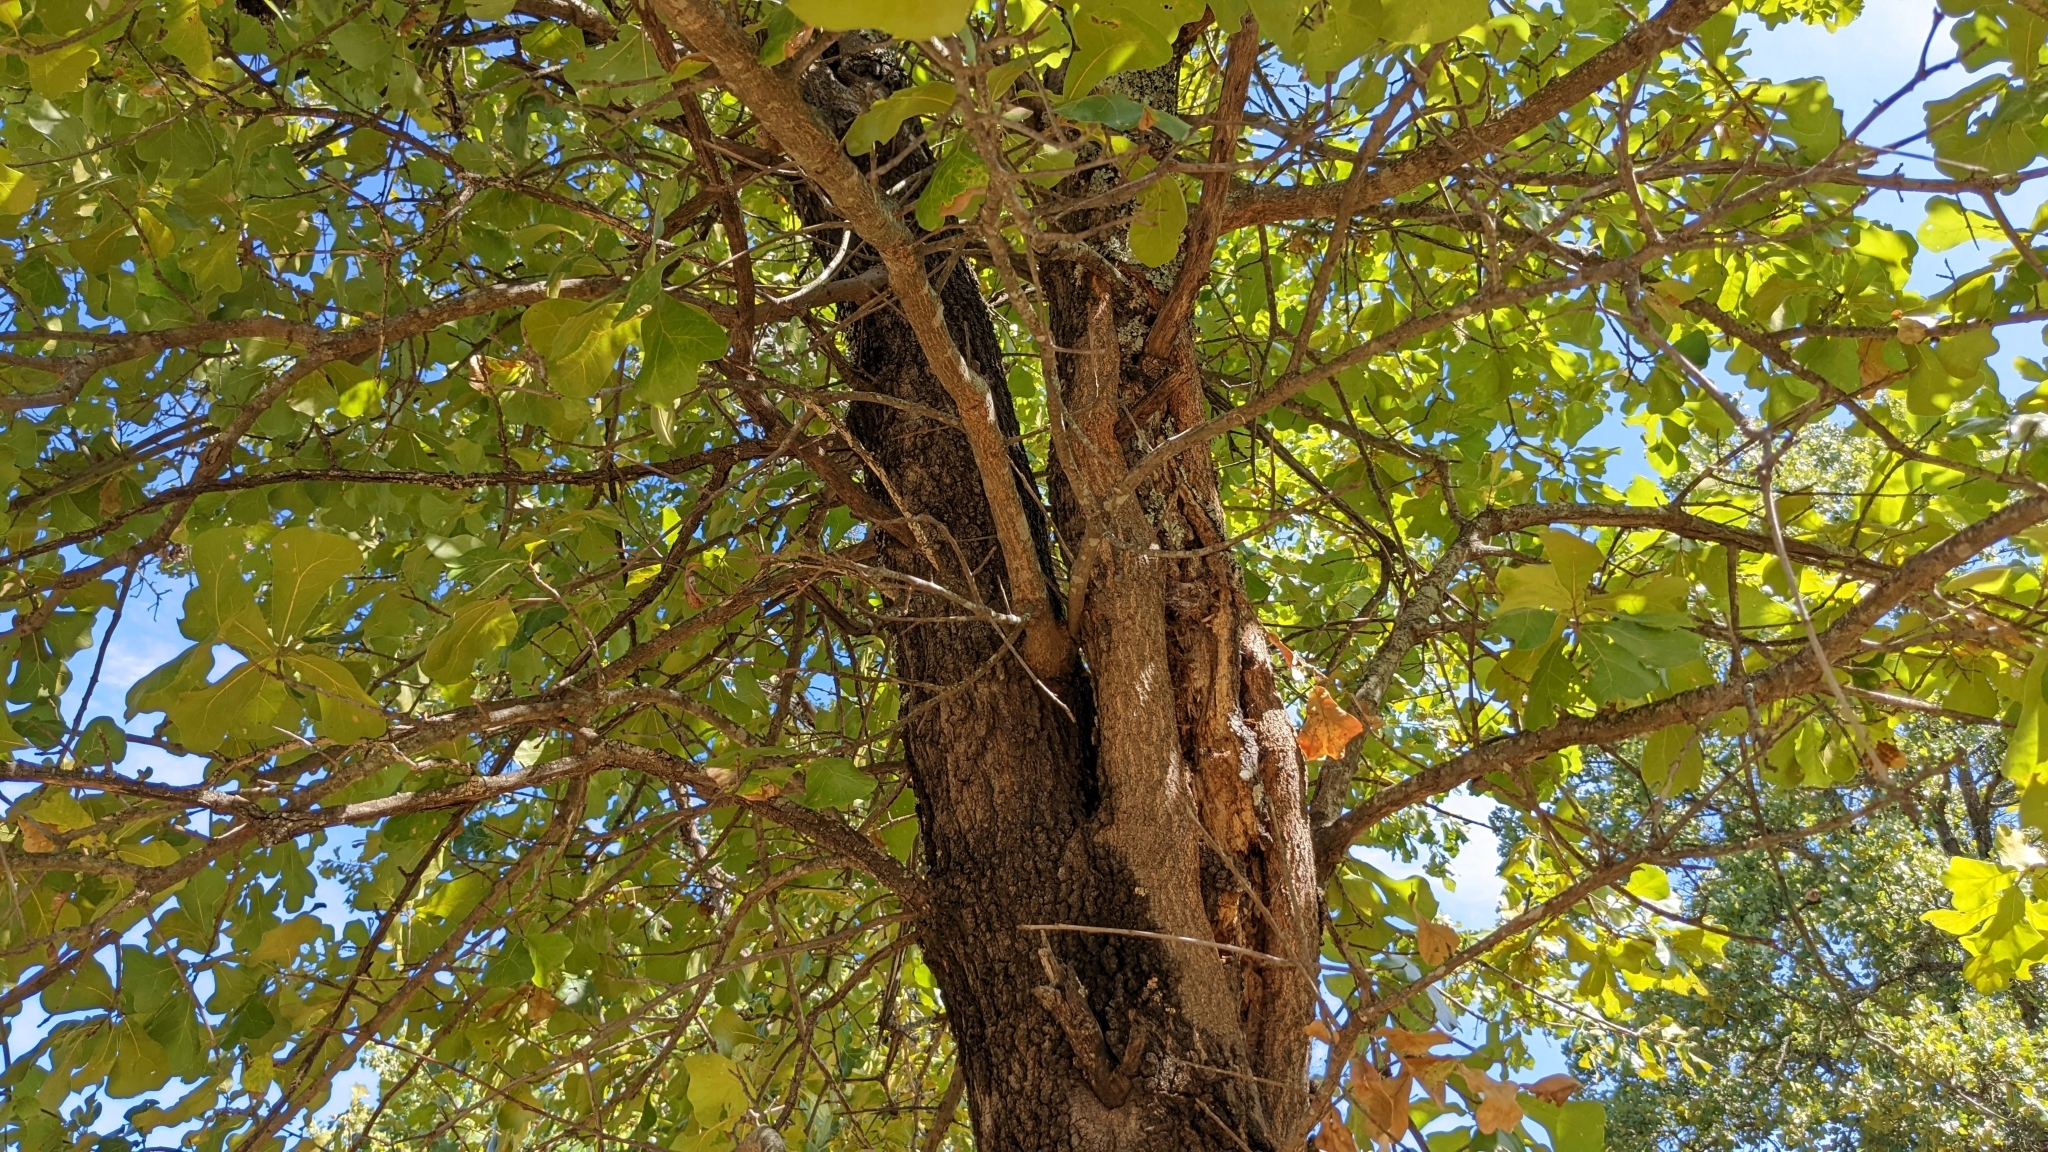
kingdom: Plantae
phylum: Tracheophyta
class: Magnoliopsida
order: Fagales
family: Fagaceae
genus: Quercus
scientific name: Quercus marilandica
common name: Blackjack oak
